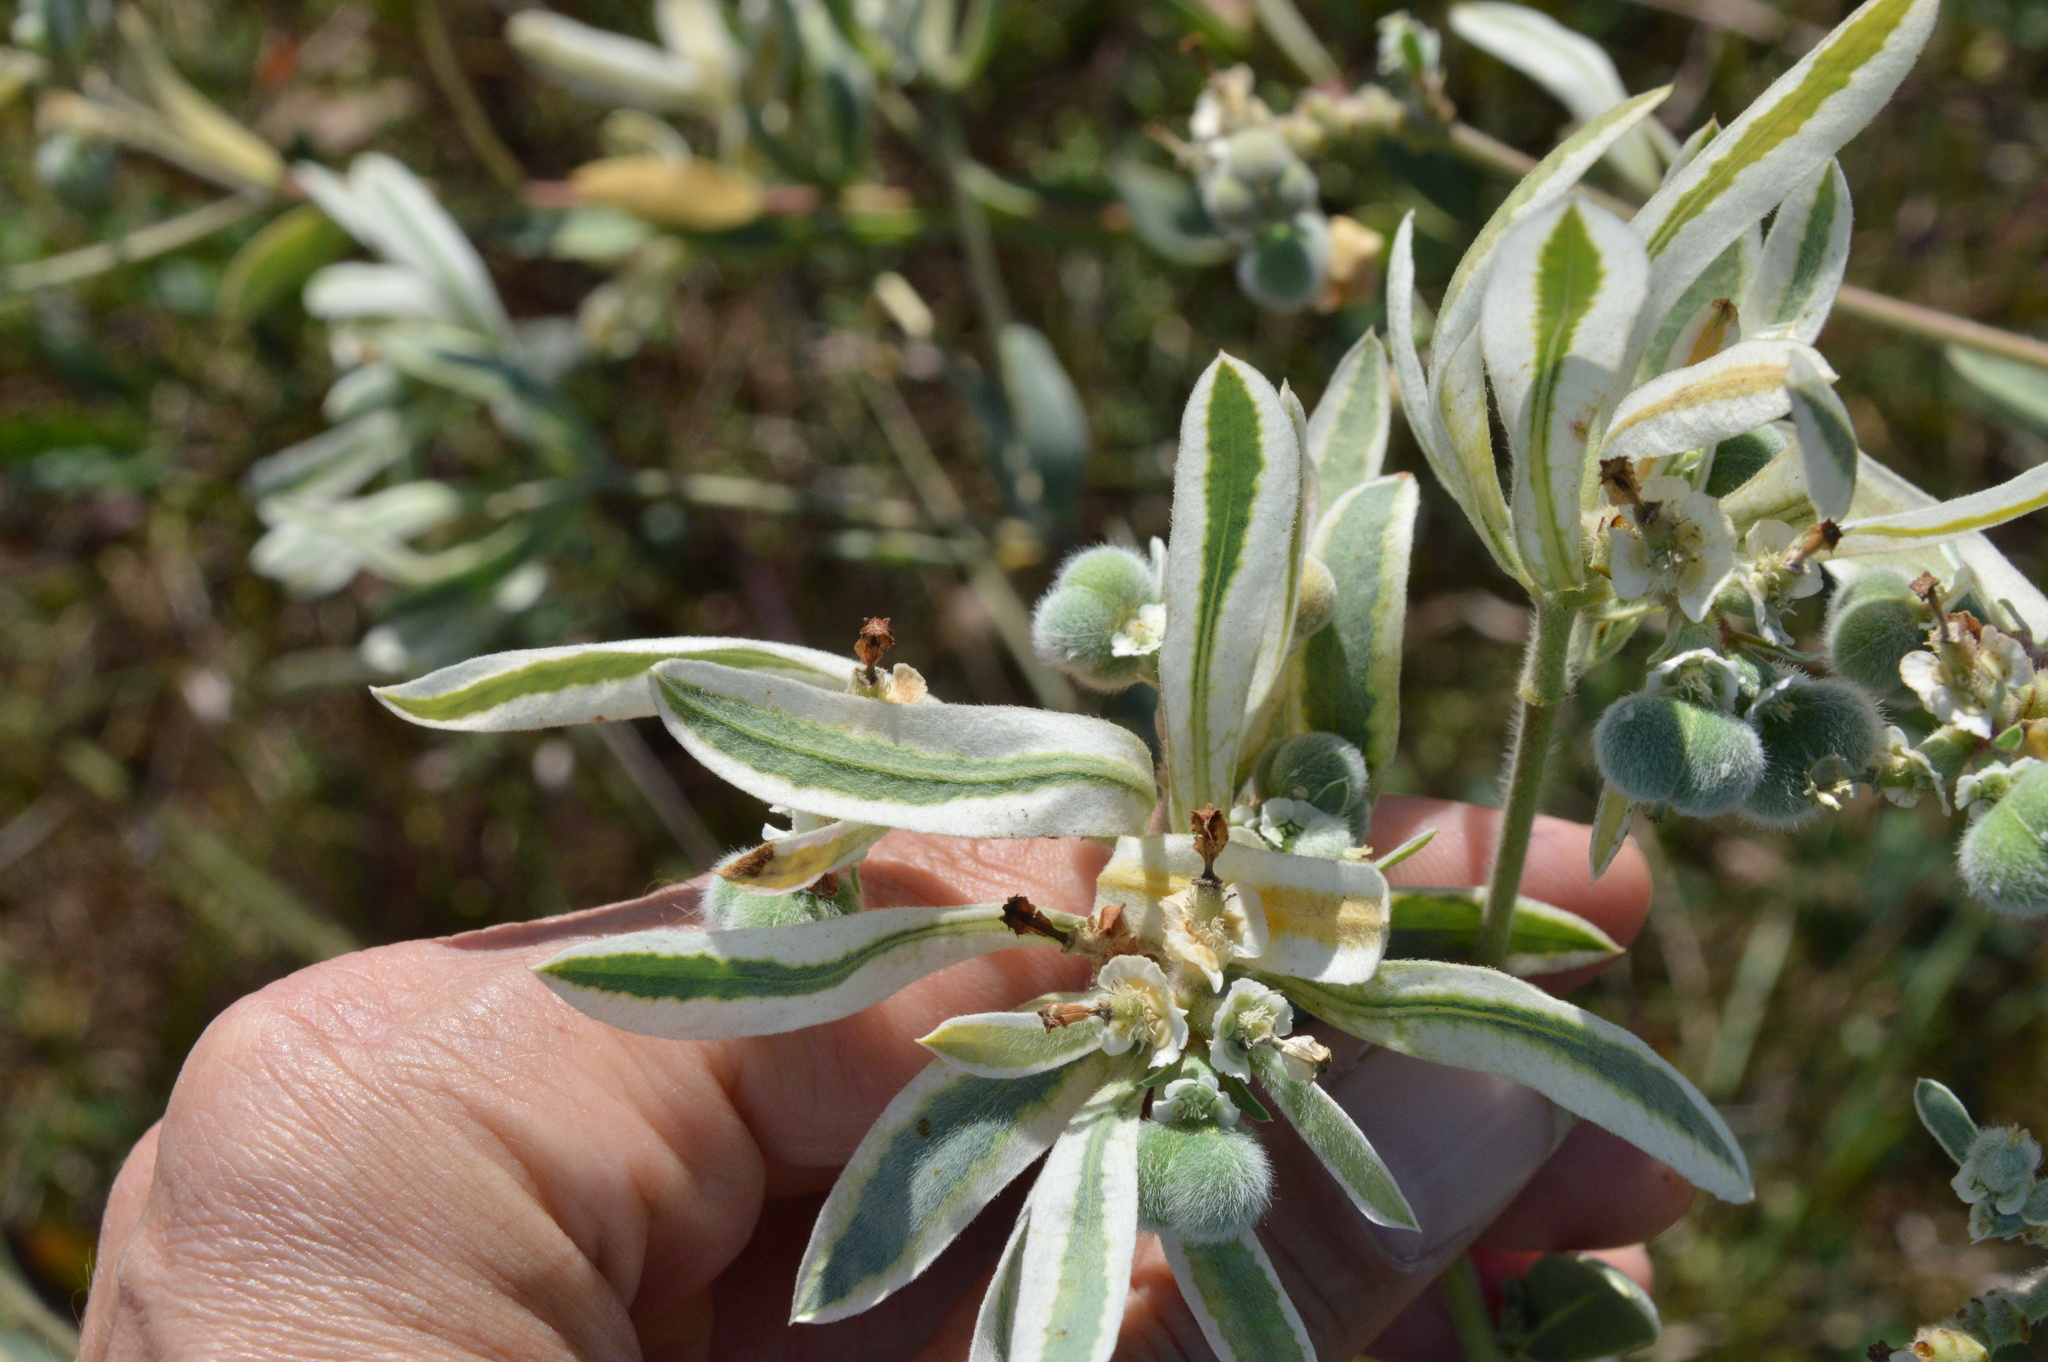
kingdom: Plantae
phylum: Tracheophyta
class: Magnoliopsida
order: Malpighiales
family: Euphorbiaceae
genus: Euphorbia
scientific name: Euphorbia bicolor
